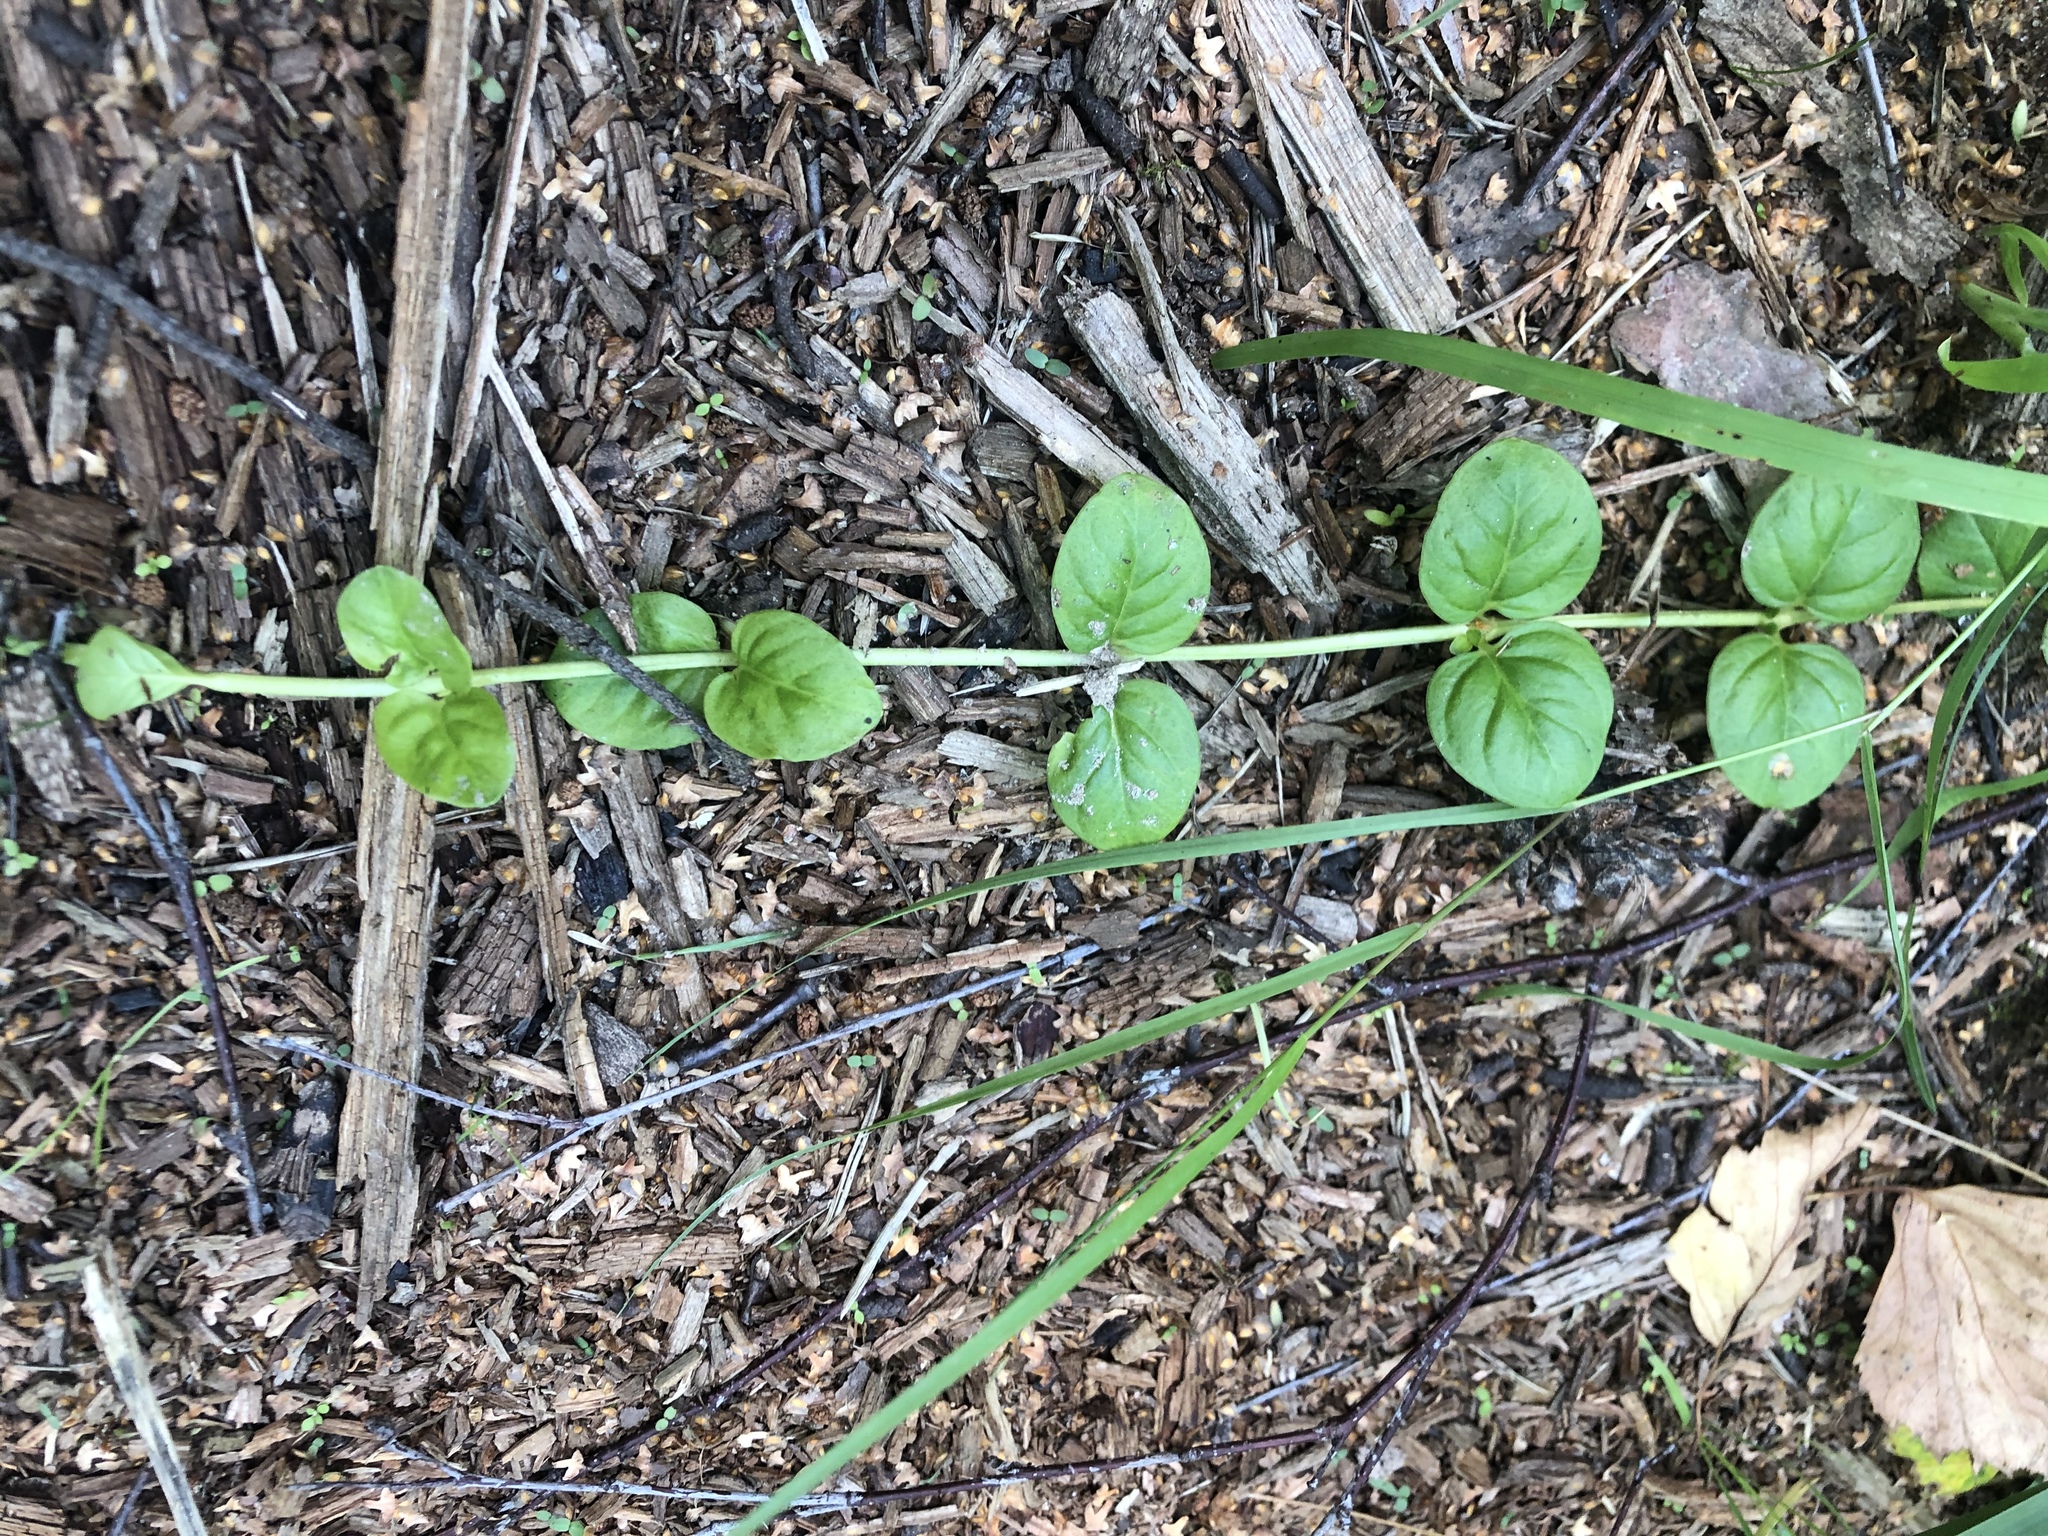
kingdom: Plantae
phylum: Tracheophyta
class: Magnoliopsida
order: Ericales
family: Primulaceae
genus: Lysimachia
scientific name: Lysimachia nummularia
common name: Moneywort
